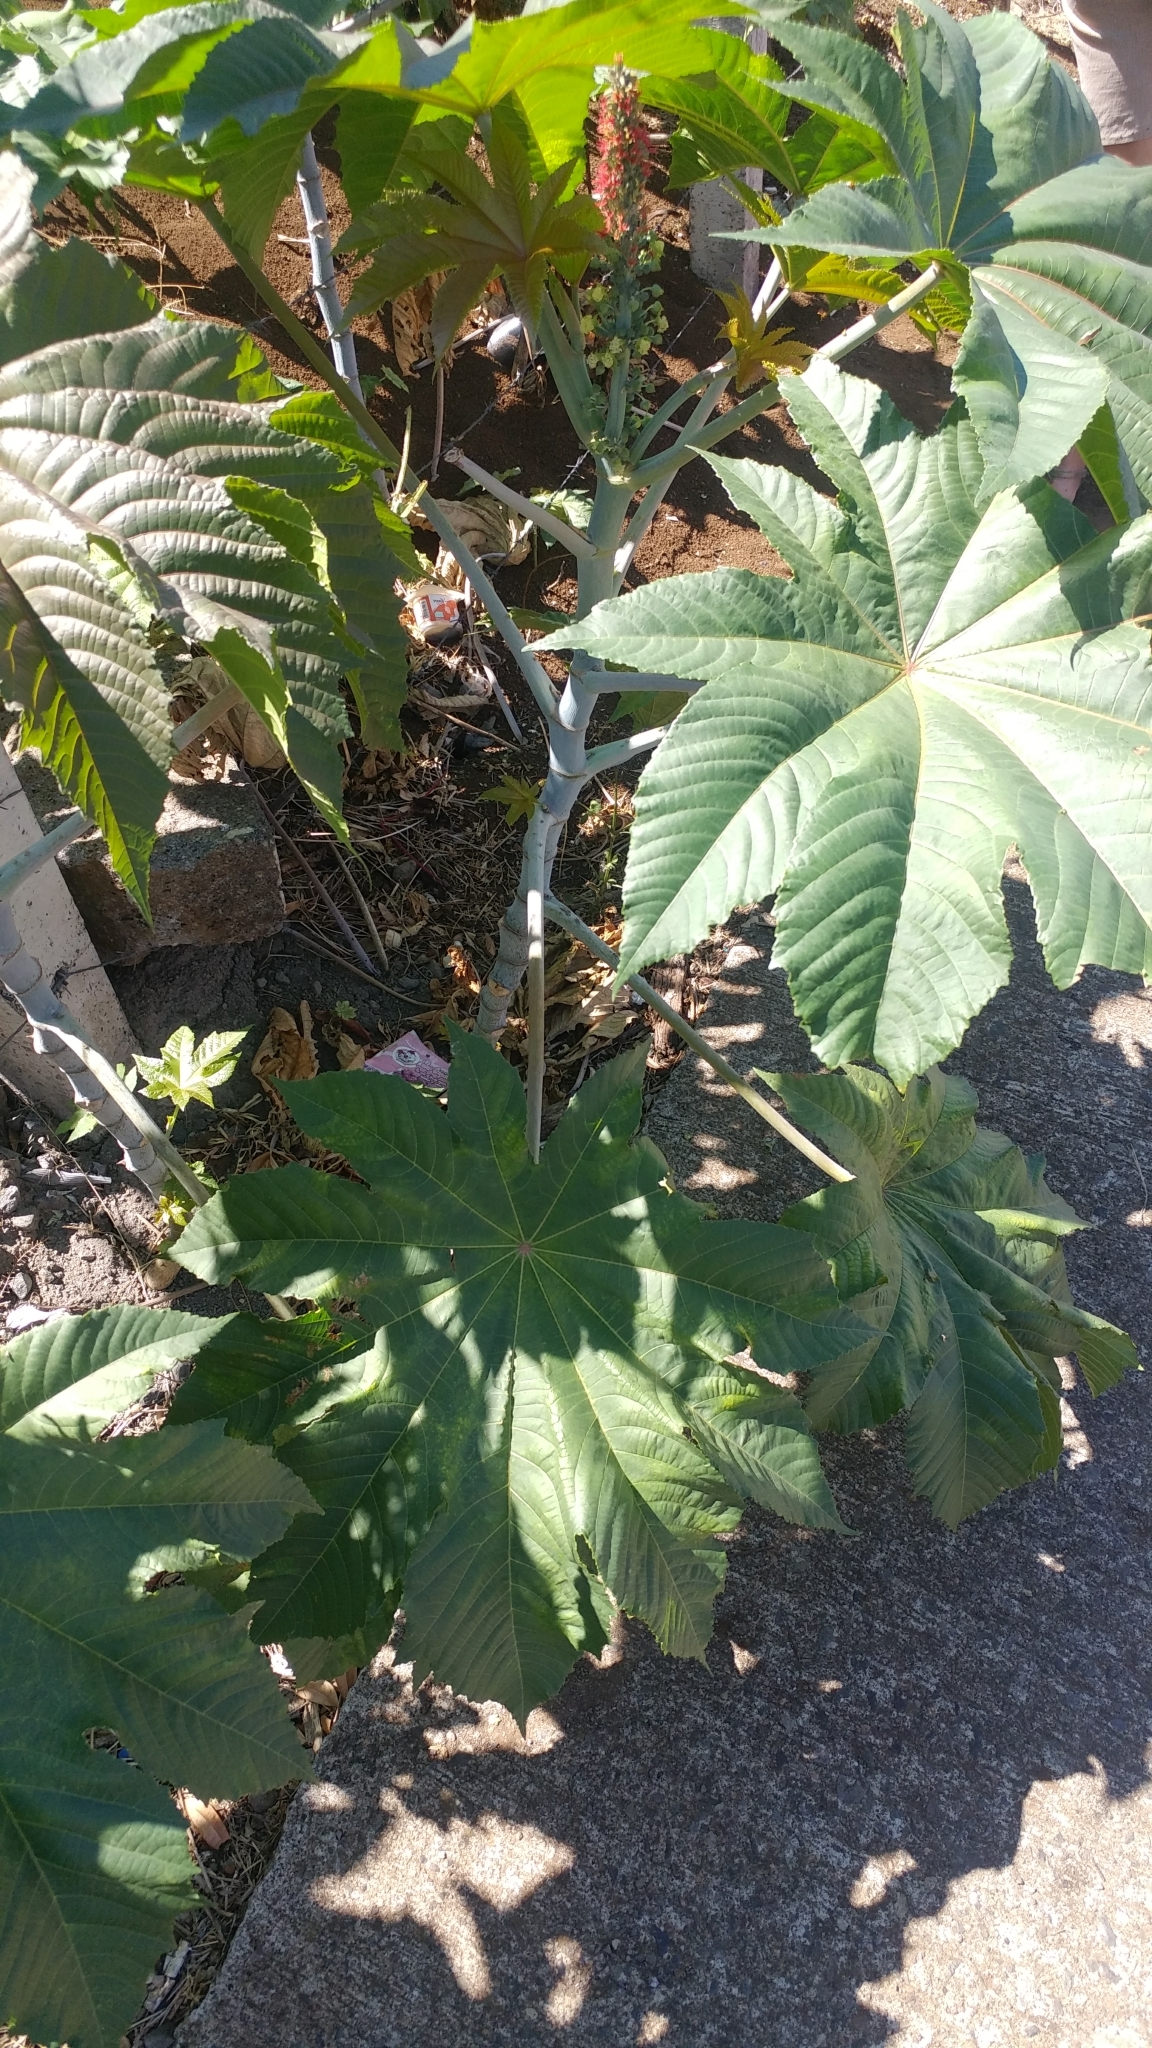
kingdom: Plantae
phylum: Tracheophyta
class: Magnoliopsida
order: Malpighiales
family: Euphorbiaceae
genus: Ricinus
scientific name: Ricinus communis
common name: Castor-oil-plant
